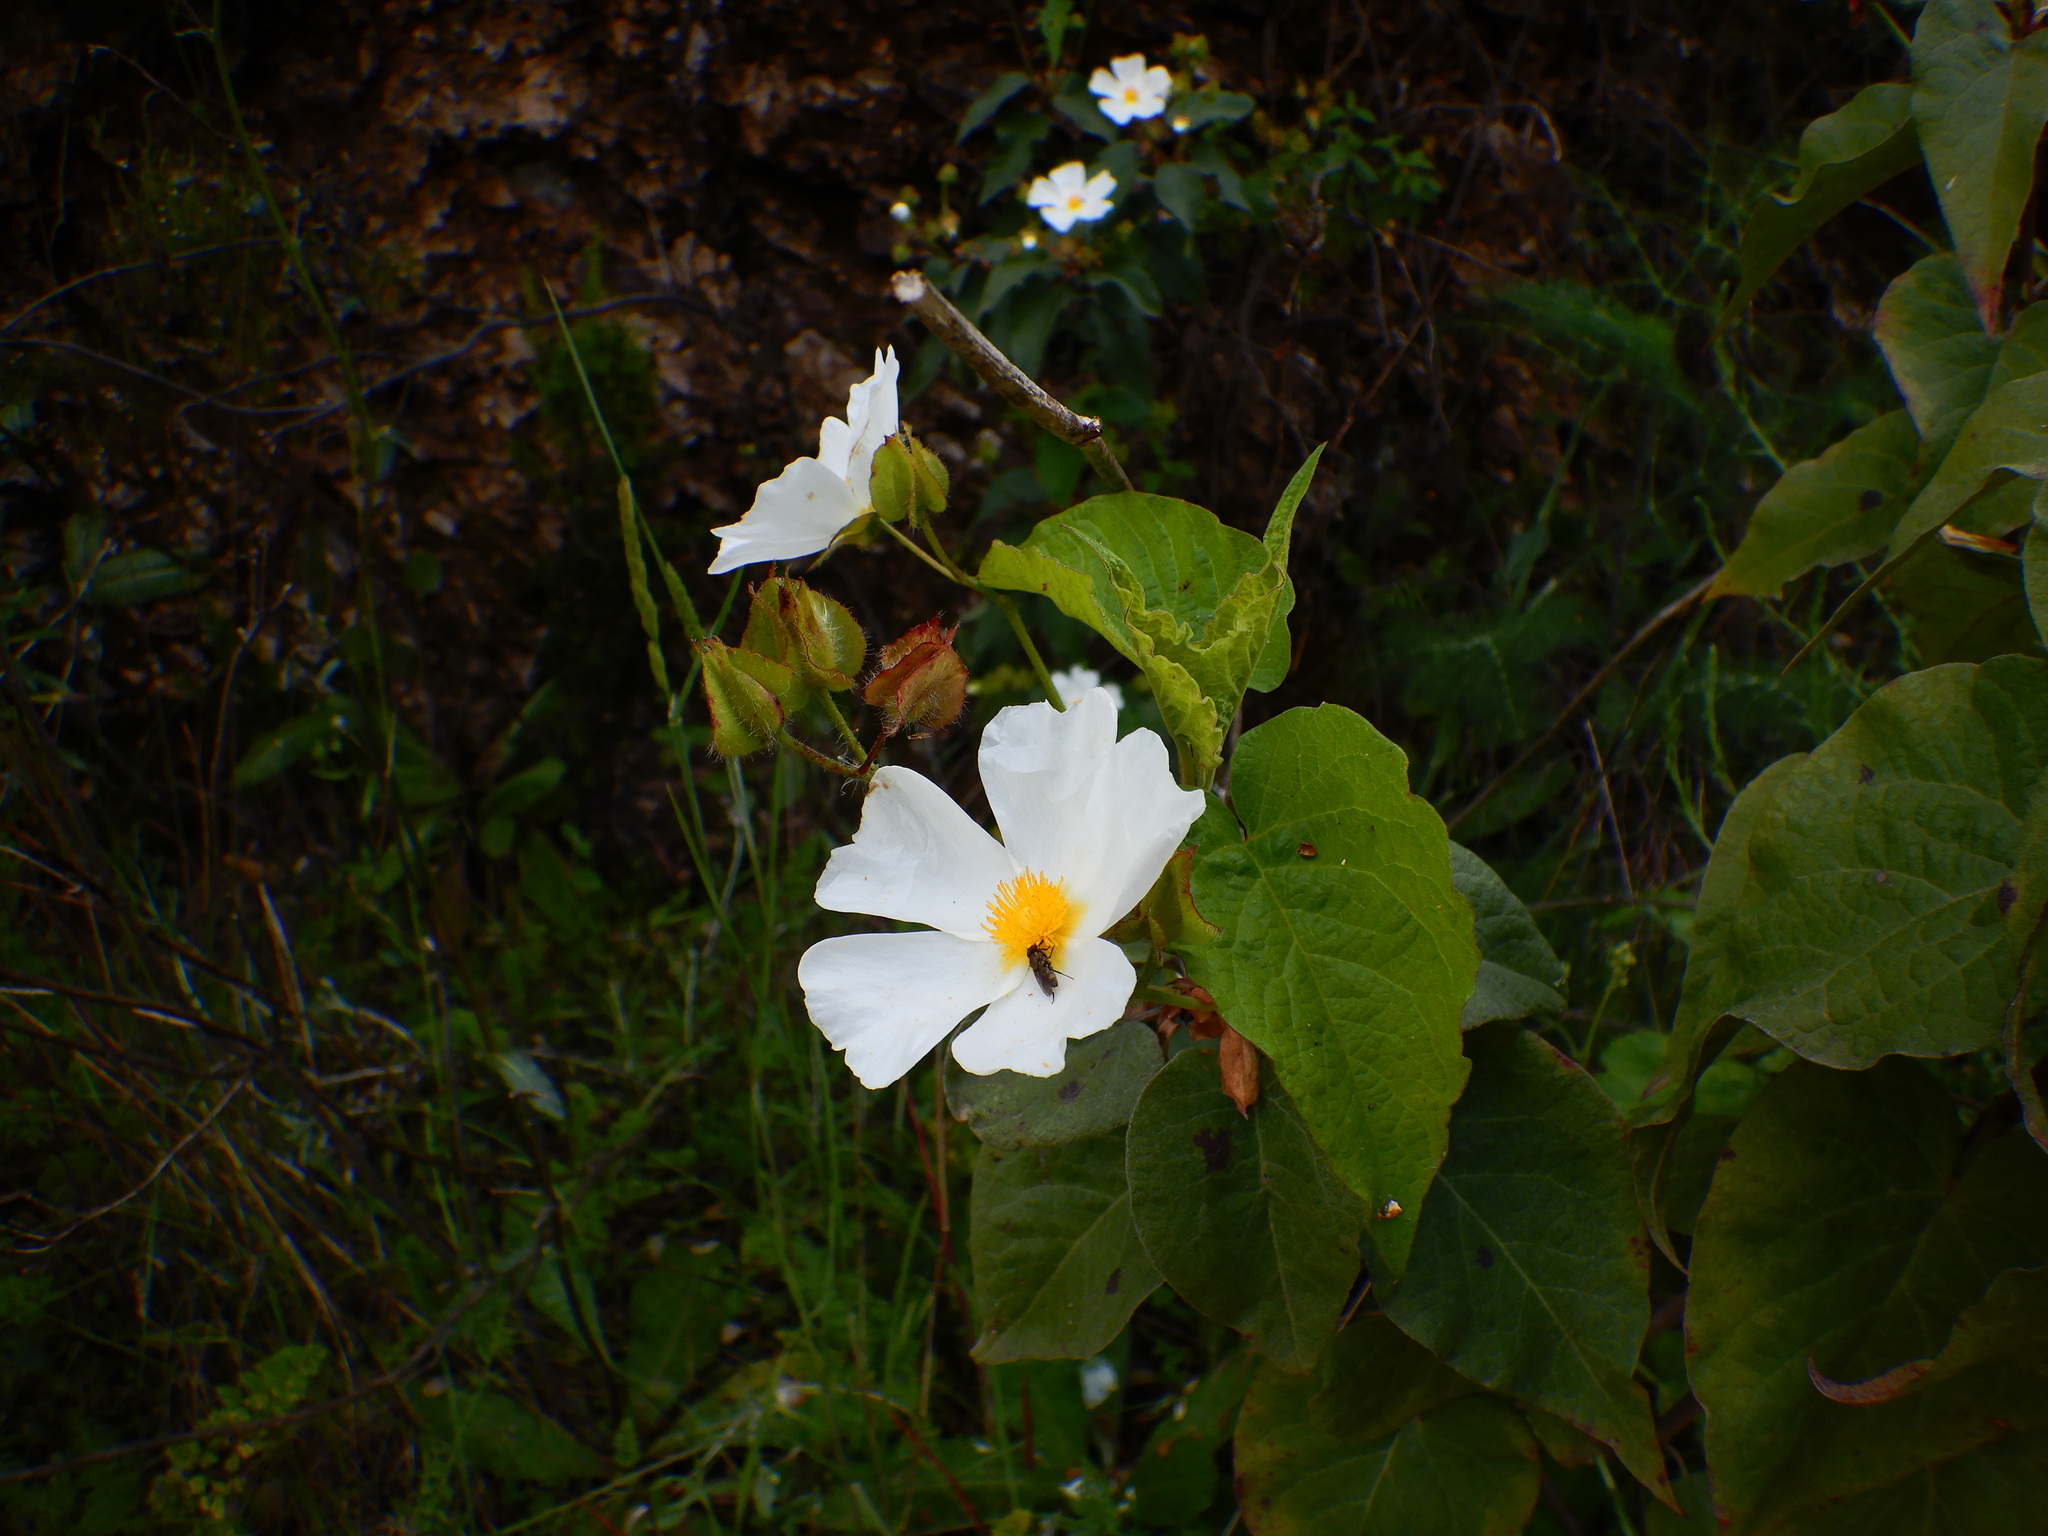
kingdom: Plantae
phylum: Tracheophyta
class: Magnoliopsida
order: Malvales
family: Cistaceae
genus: Cistus
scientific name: Cistus populifolius
